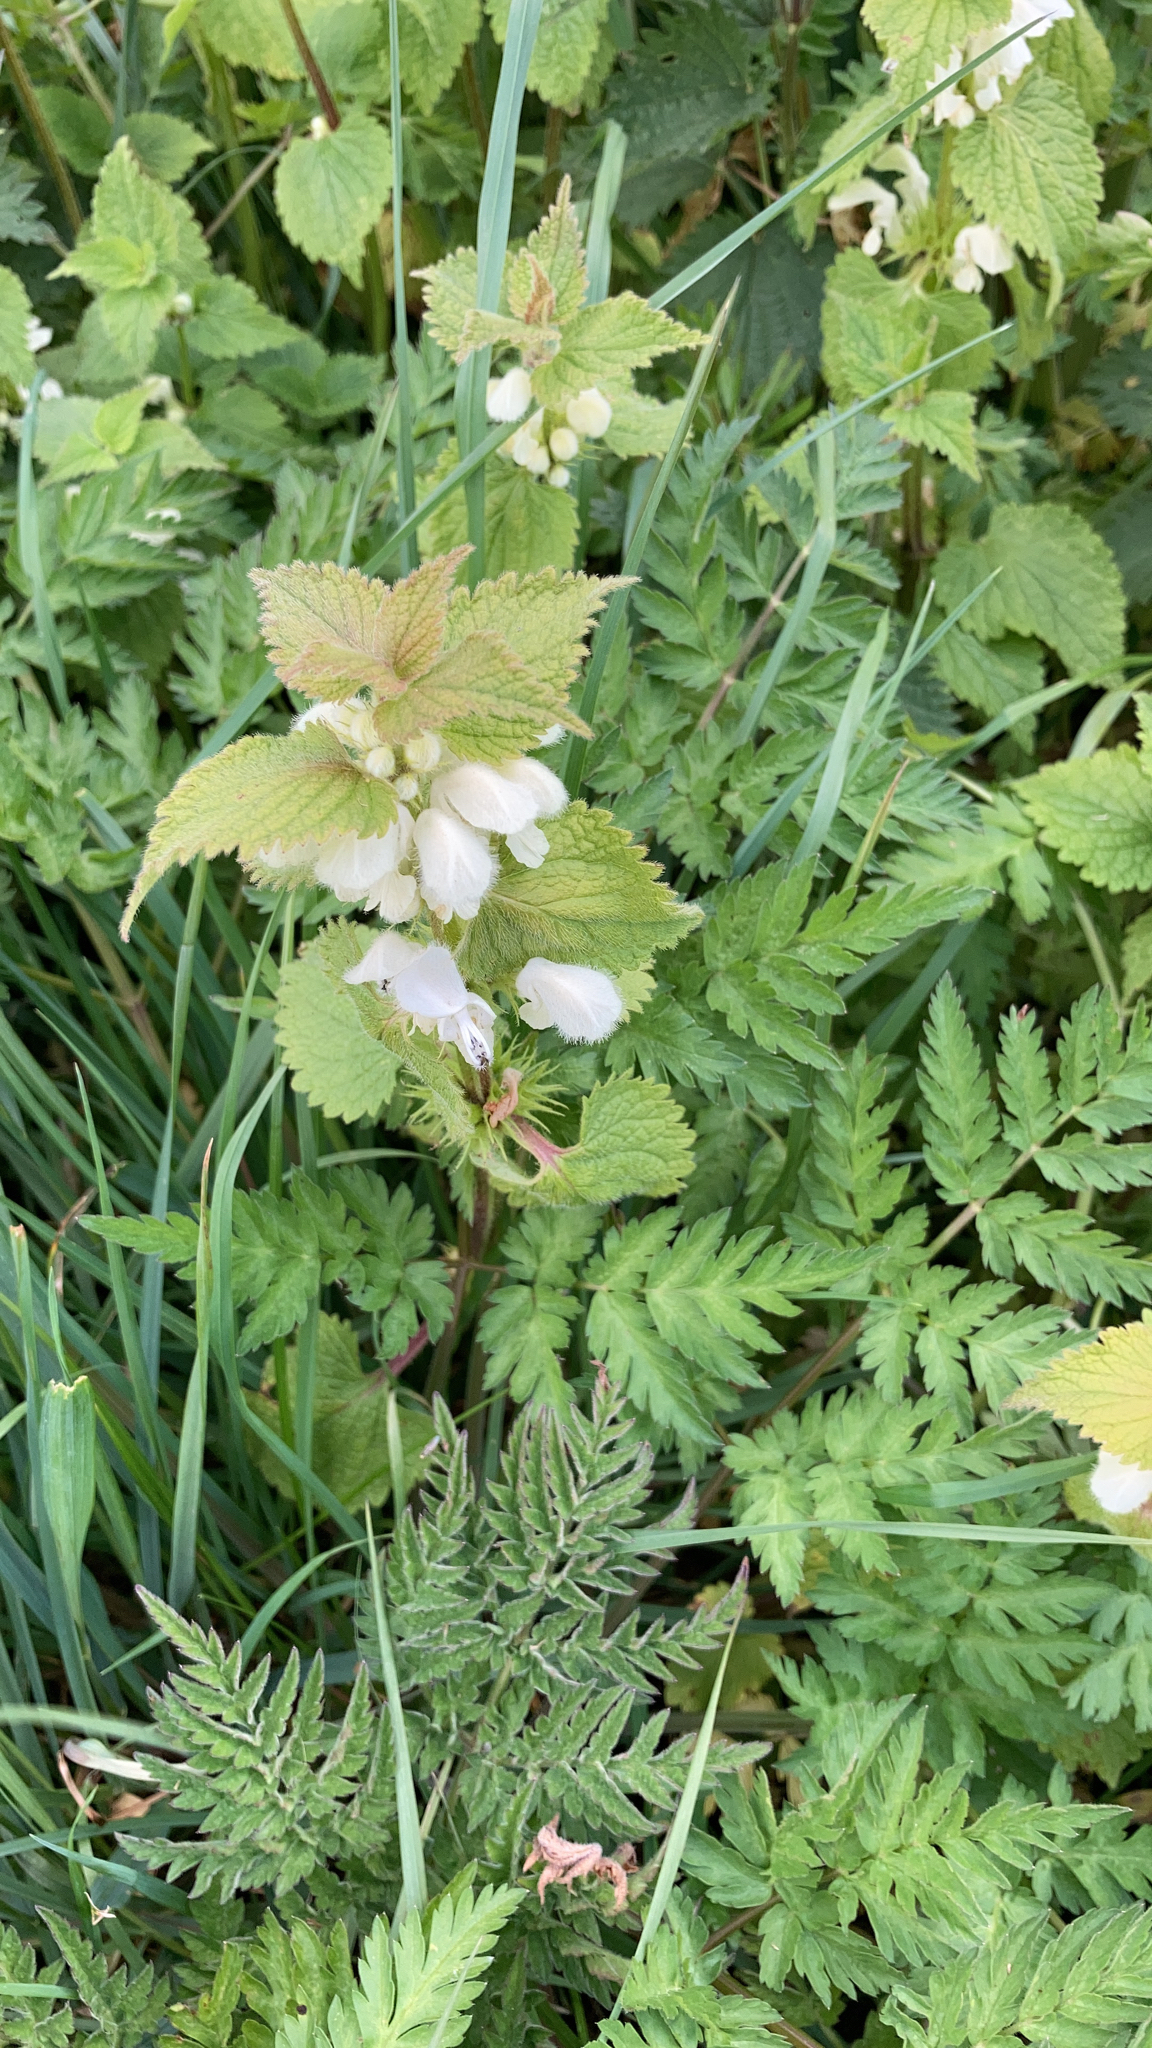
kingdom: Plantae
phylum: Tracheophyta
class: Magnoliopsida
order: Lamiales
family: Lamiaceae
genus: Lamium
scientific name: Lamium album
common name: White dead-nettle
